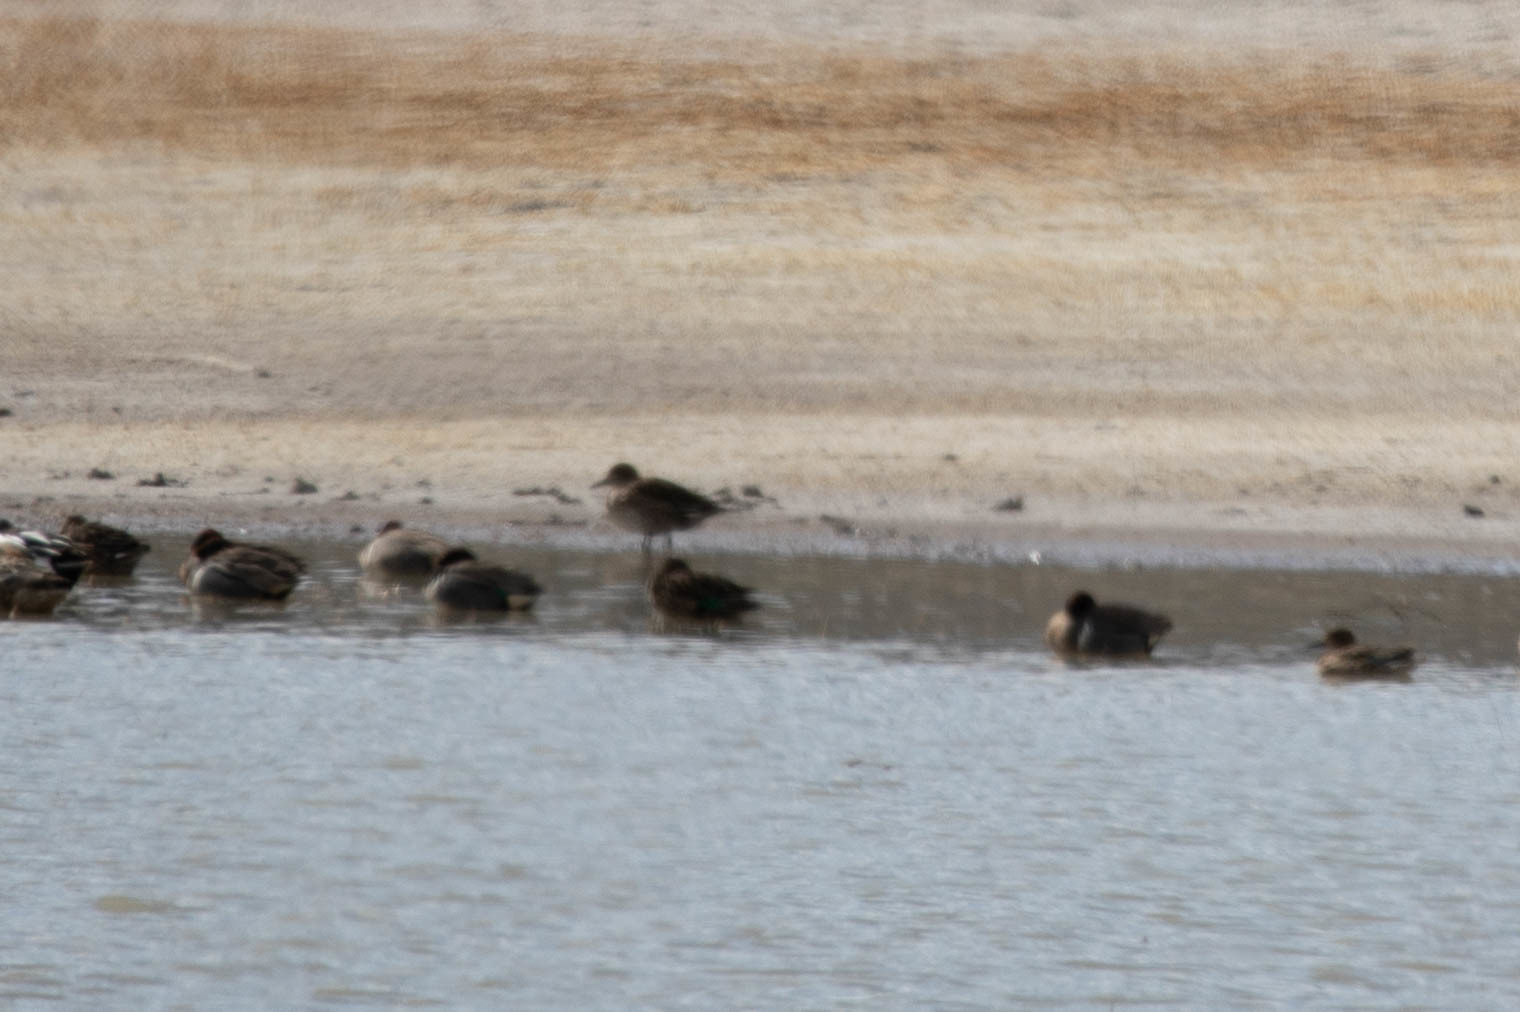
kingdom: Animalia
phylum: Chordata
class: Aves
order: Anseriformes
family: Anatidae
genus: Anas
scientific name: Anas carolinensis
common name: Green-winged teal
